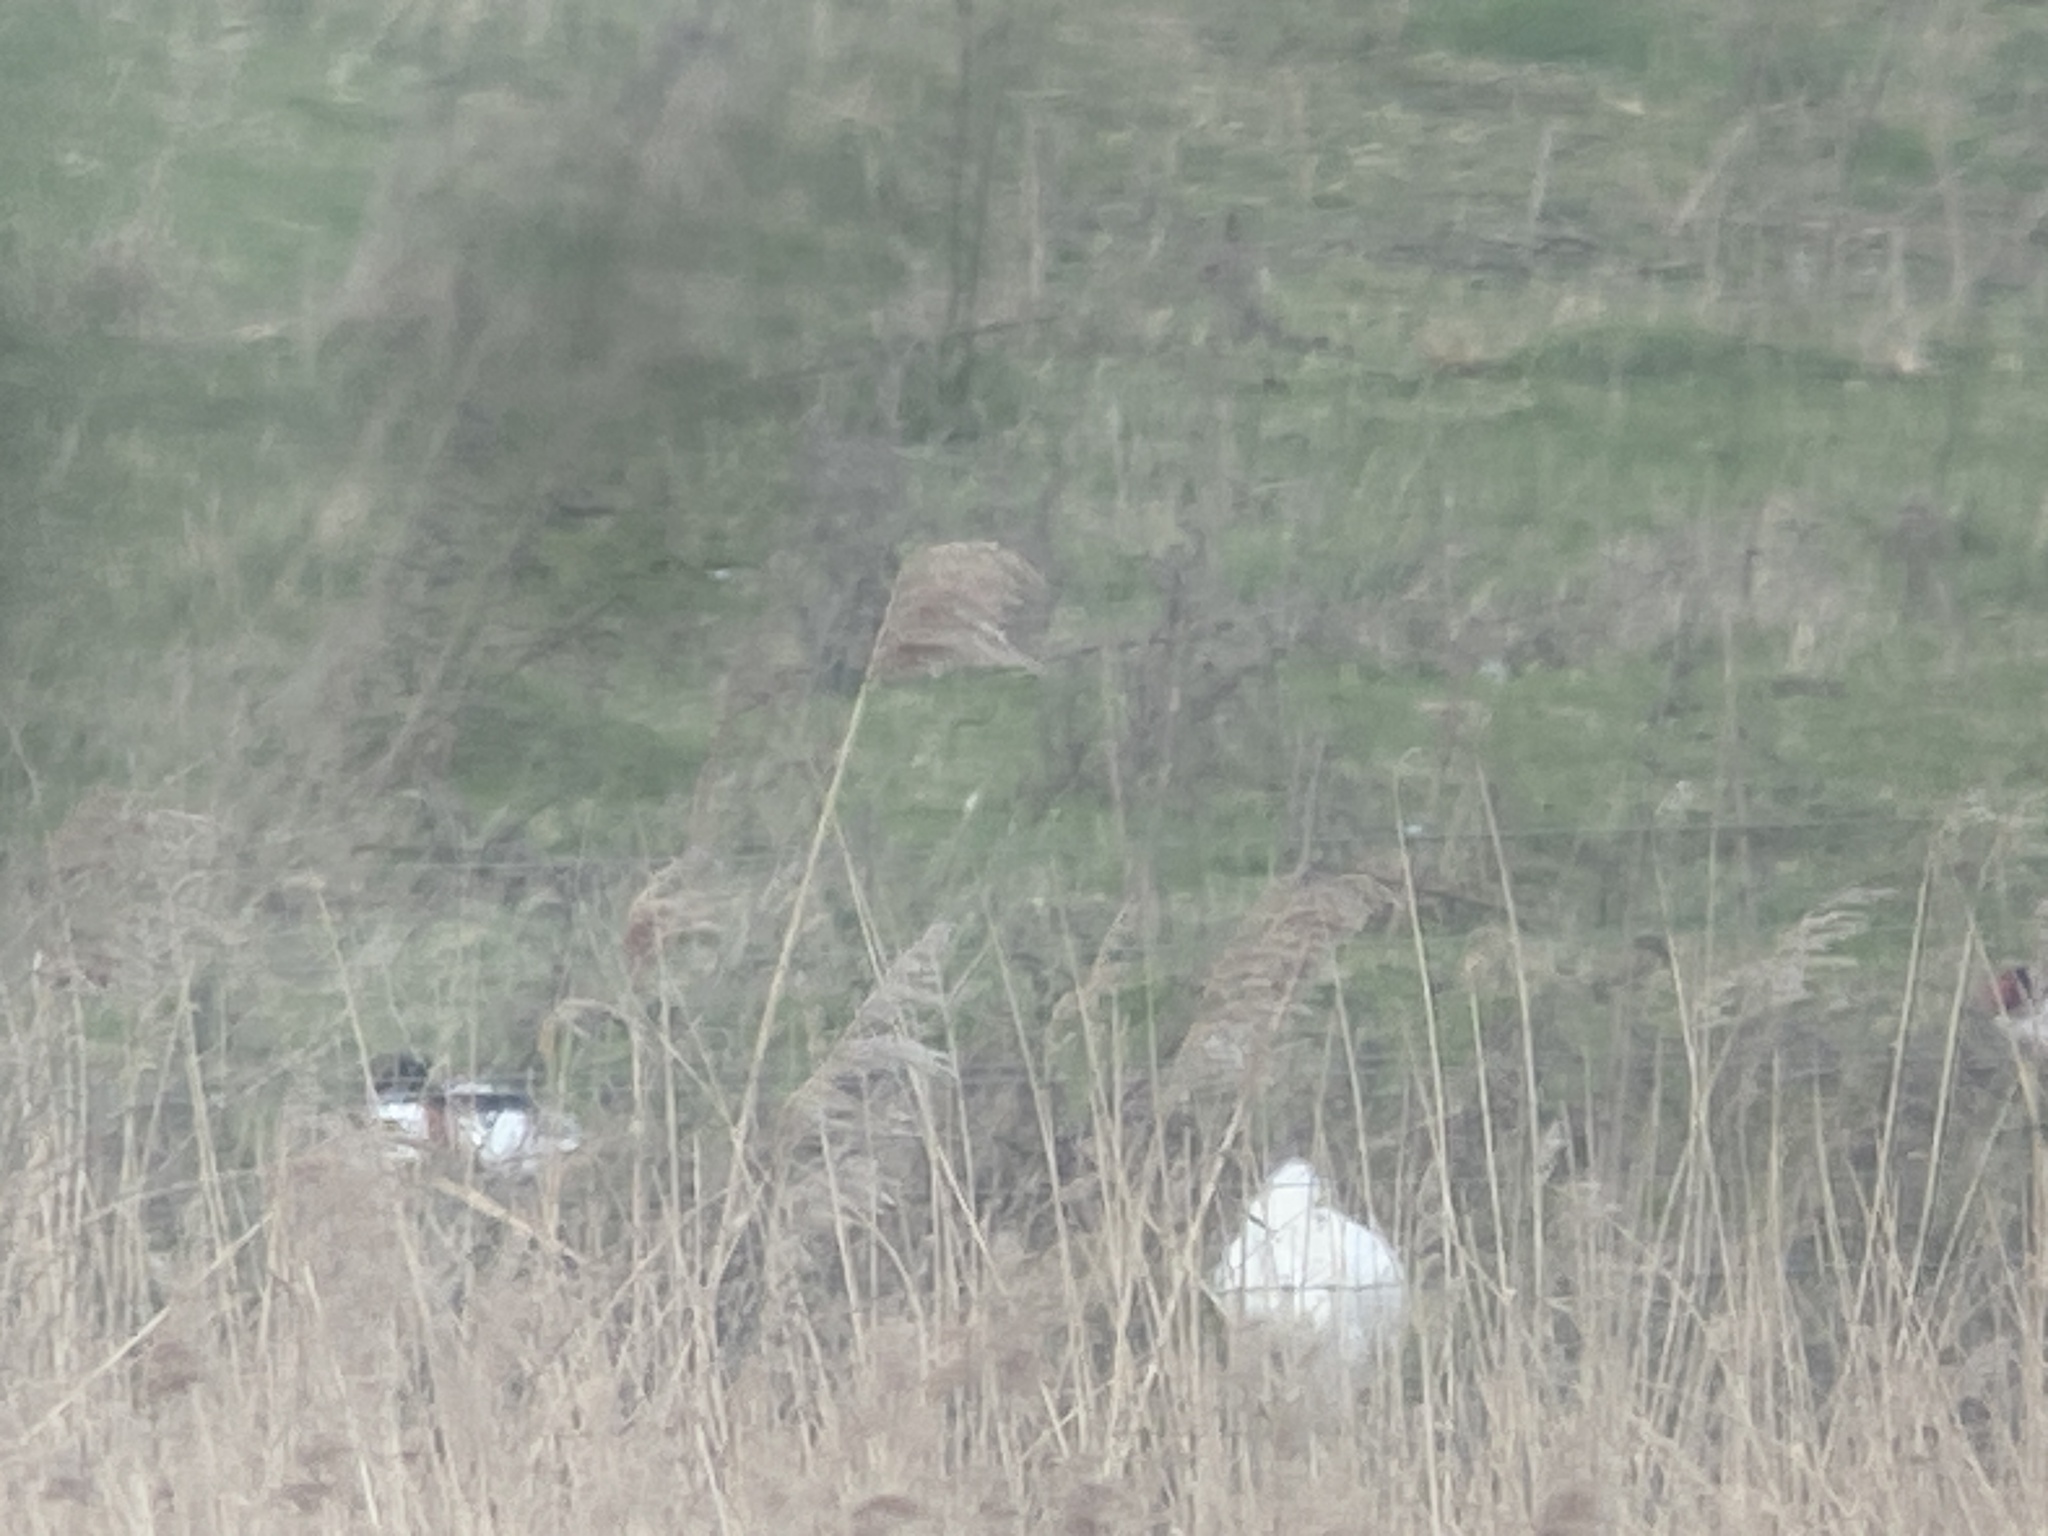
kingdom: Animalia
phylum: Chordata
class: Aves
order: Pelecaniformes
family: Threskiornithidae
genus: Platalea
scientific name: Platalea leucorodia
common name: Eurasian spoonbill
